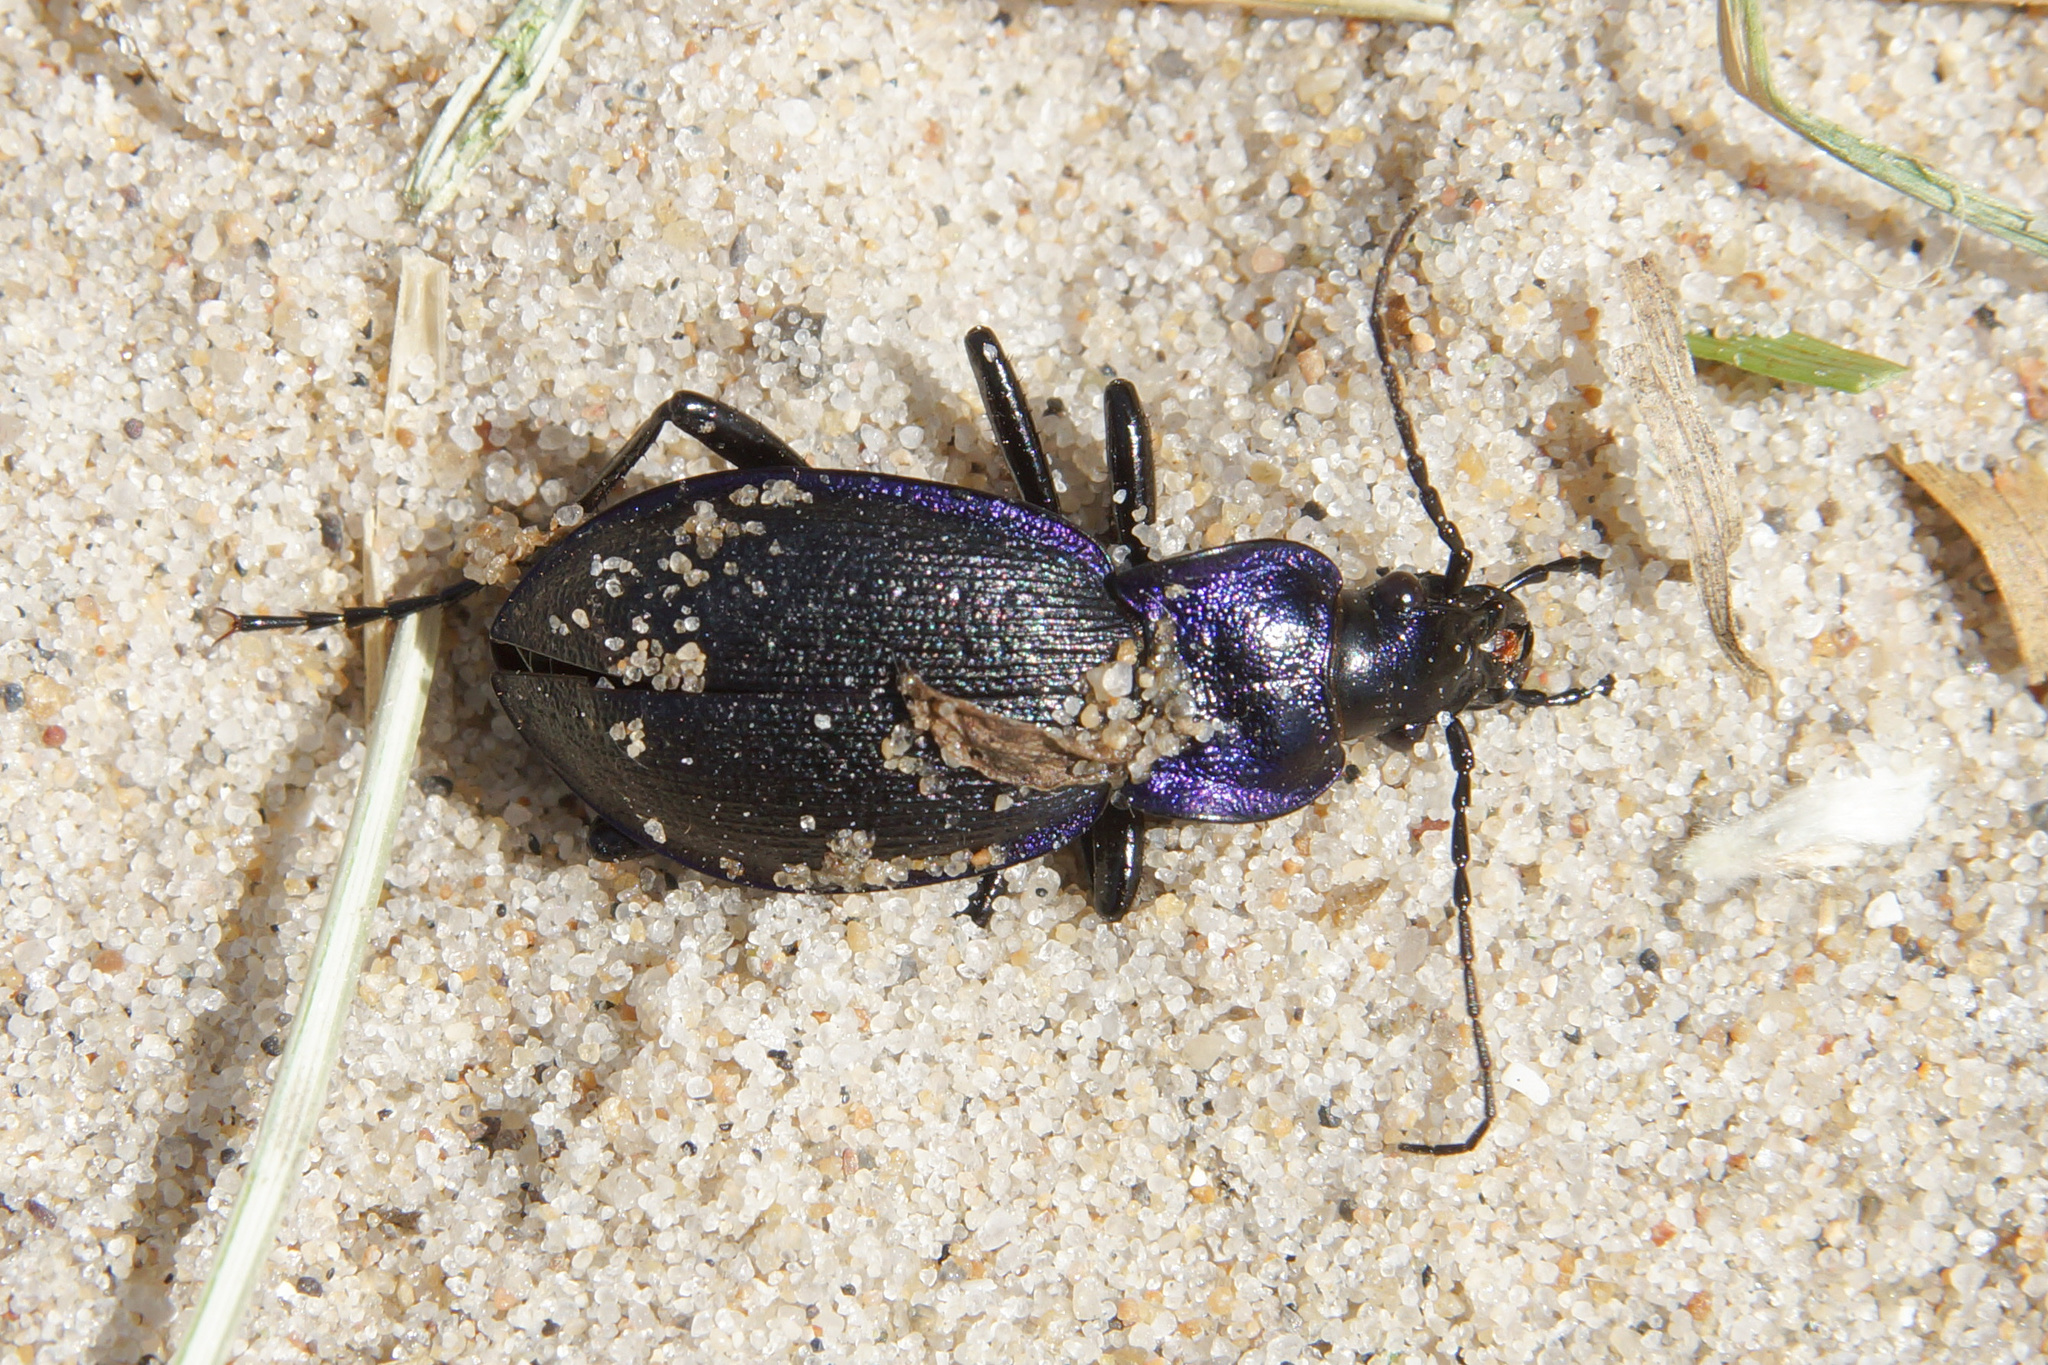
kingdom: Animalia
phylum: Arthropoda
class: Insecta
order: Coleoptera
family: Carabidae
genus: Carabus
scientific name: Carabus problematicus
